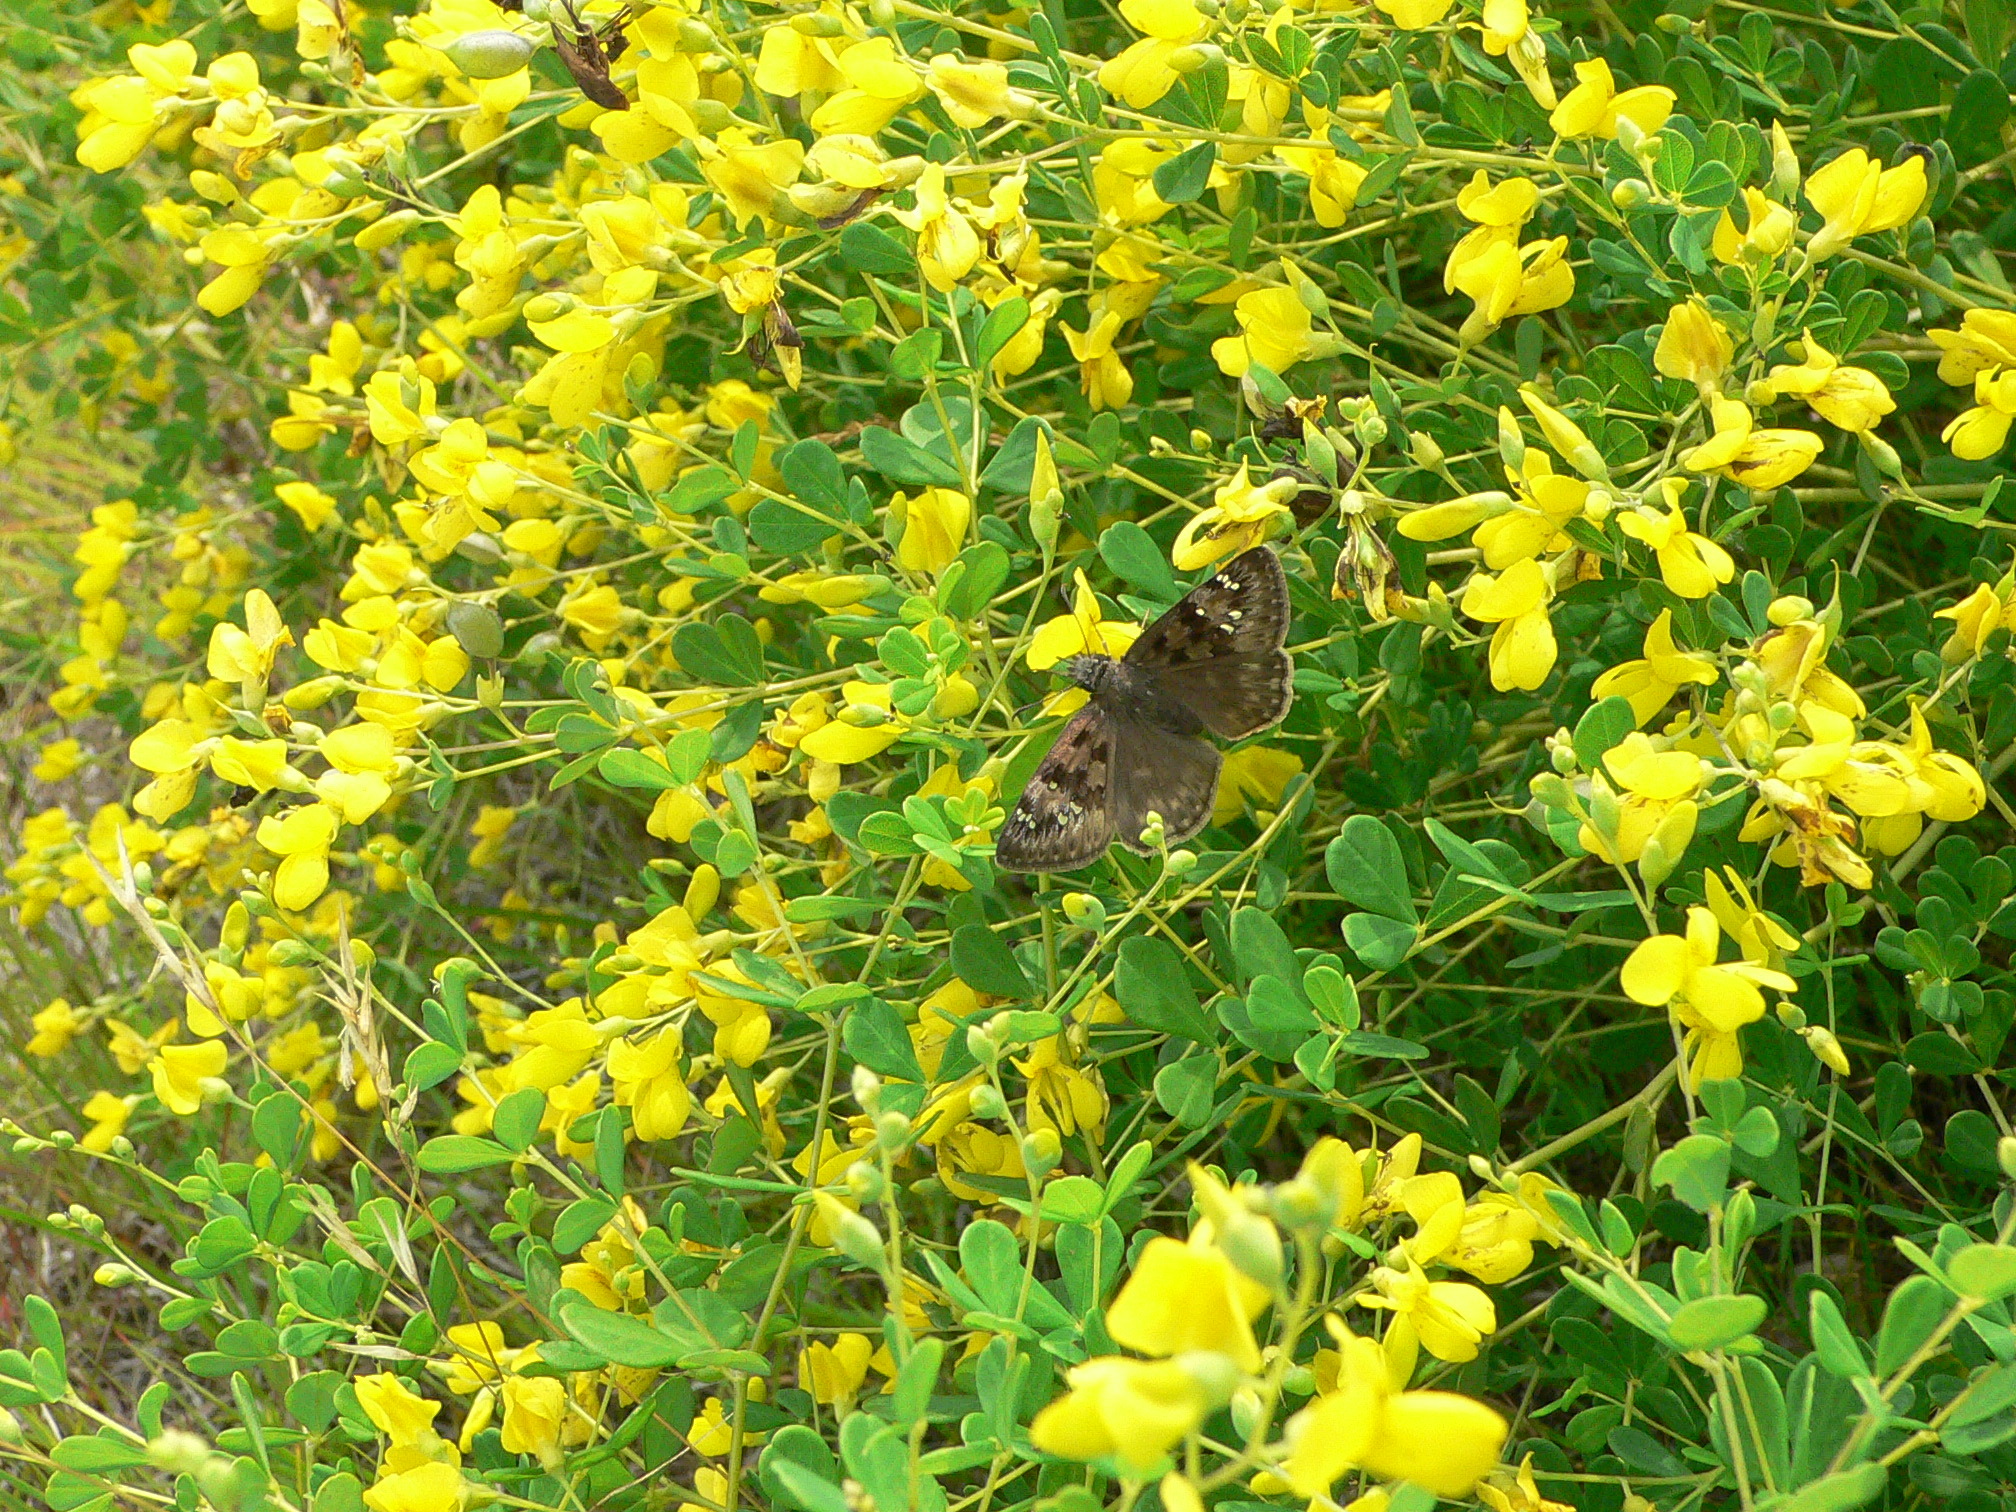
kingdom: Animalia
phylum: Arthropoda
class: Insecta
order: Lepidoptera
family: Hesperiidae
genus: Erynnis
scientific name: Erynnis horatius
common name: Horace's duskywing
